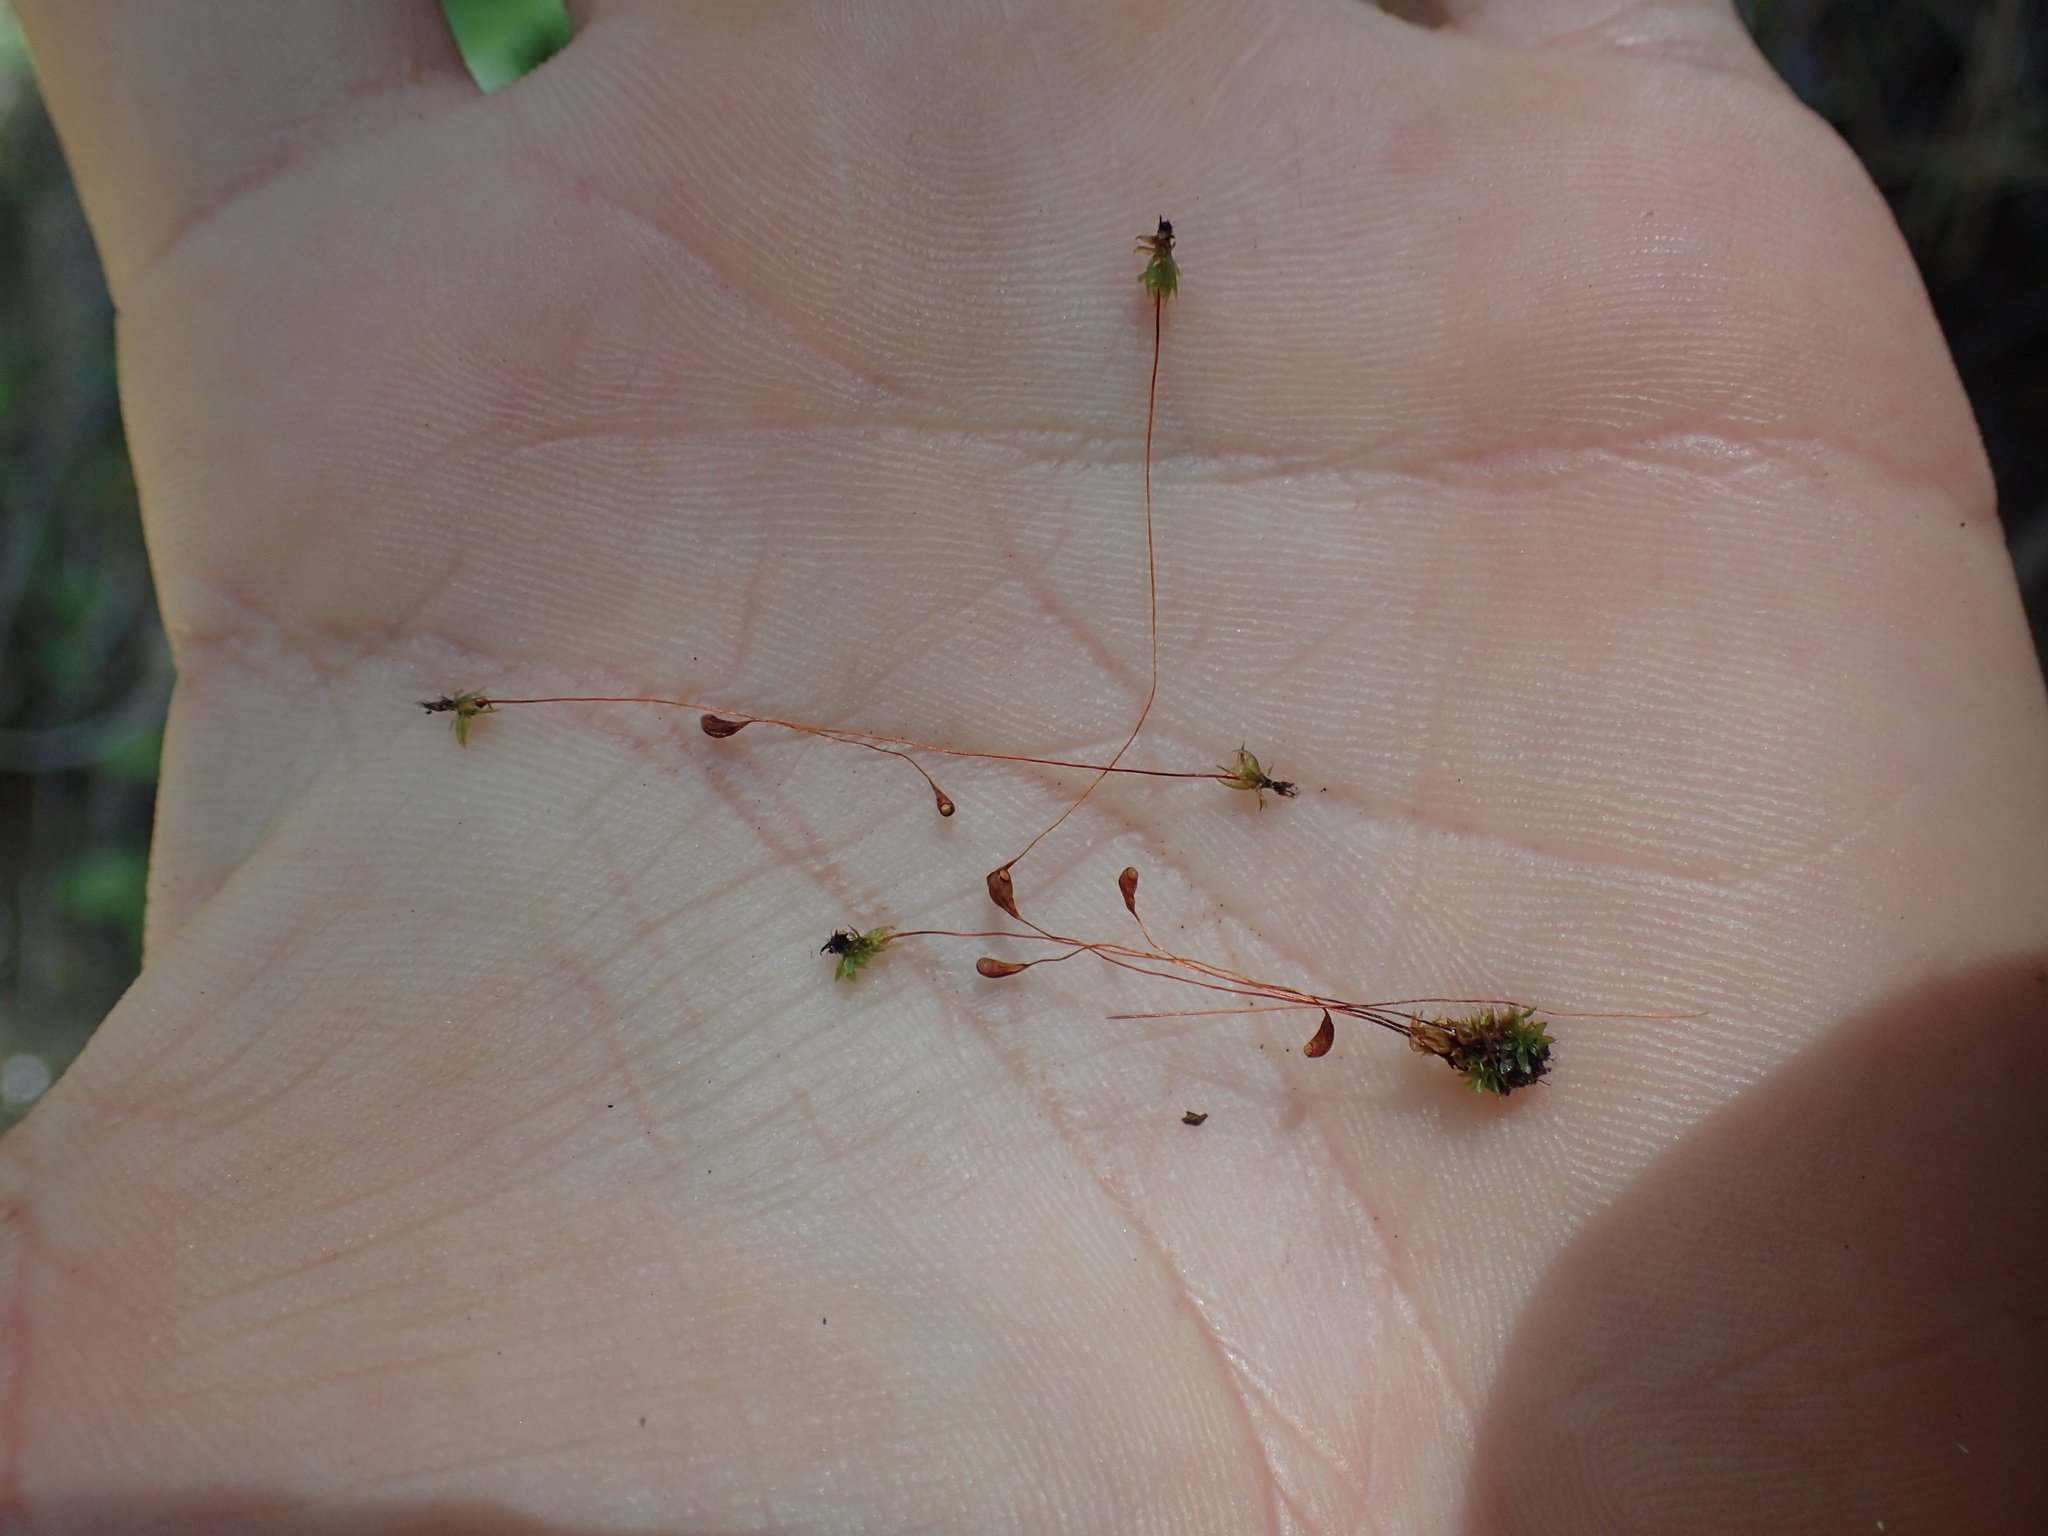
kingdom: Plantae
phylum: Bryophyta
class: Bryopsida
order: Funariales
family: Funariaceae
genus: Funaria
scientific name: Funaria hygrometrica
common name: Common cord moss
